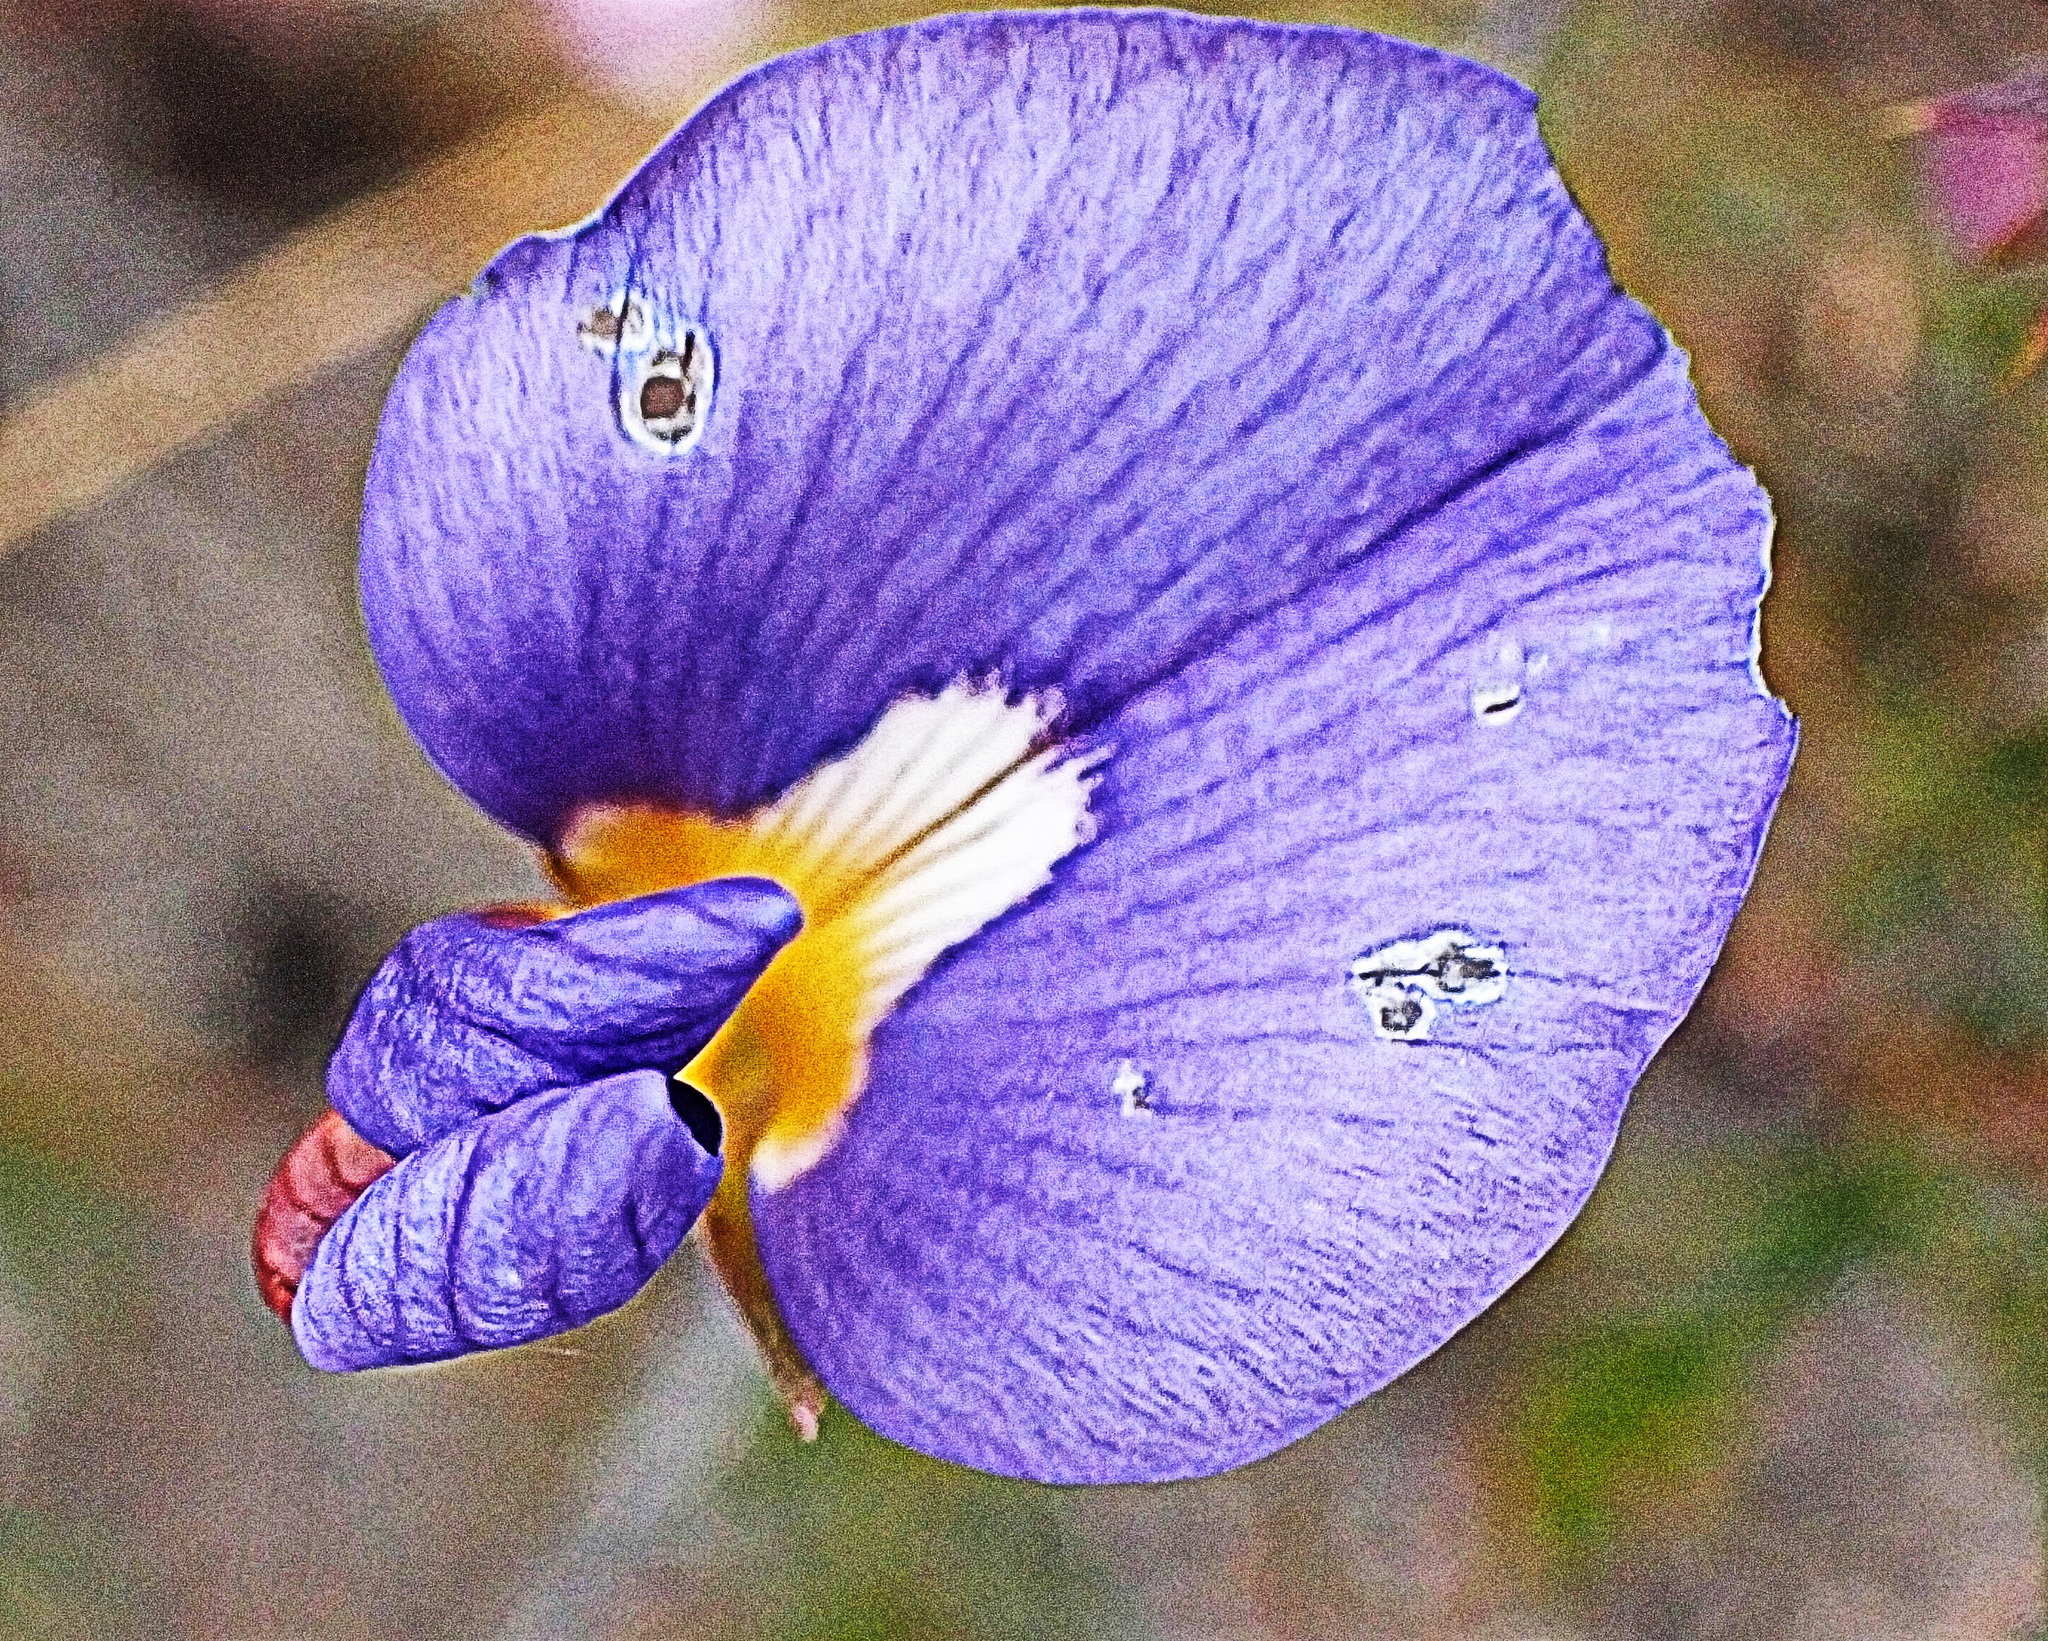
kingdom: Plantae
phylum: Tracheophyta
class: Magnoliopsida
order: Fabales
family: Fabaceae
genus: Lotononis
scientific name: Lotononis filiformis
